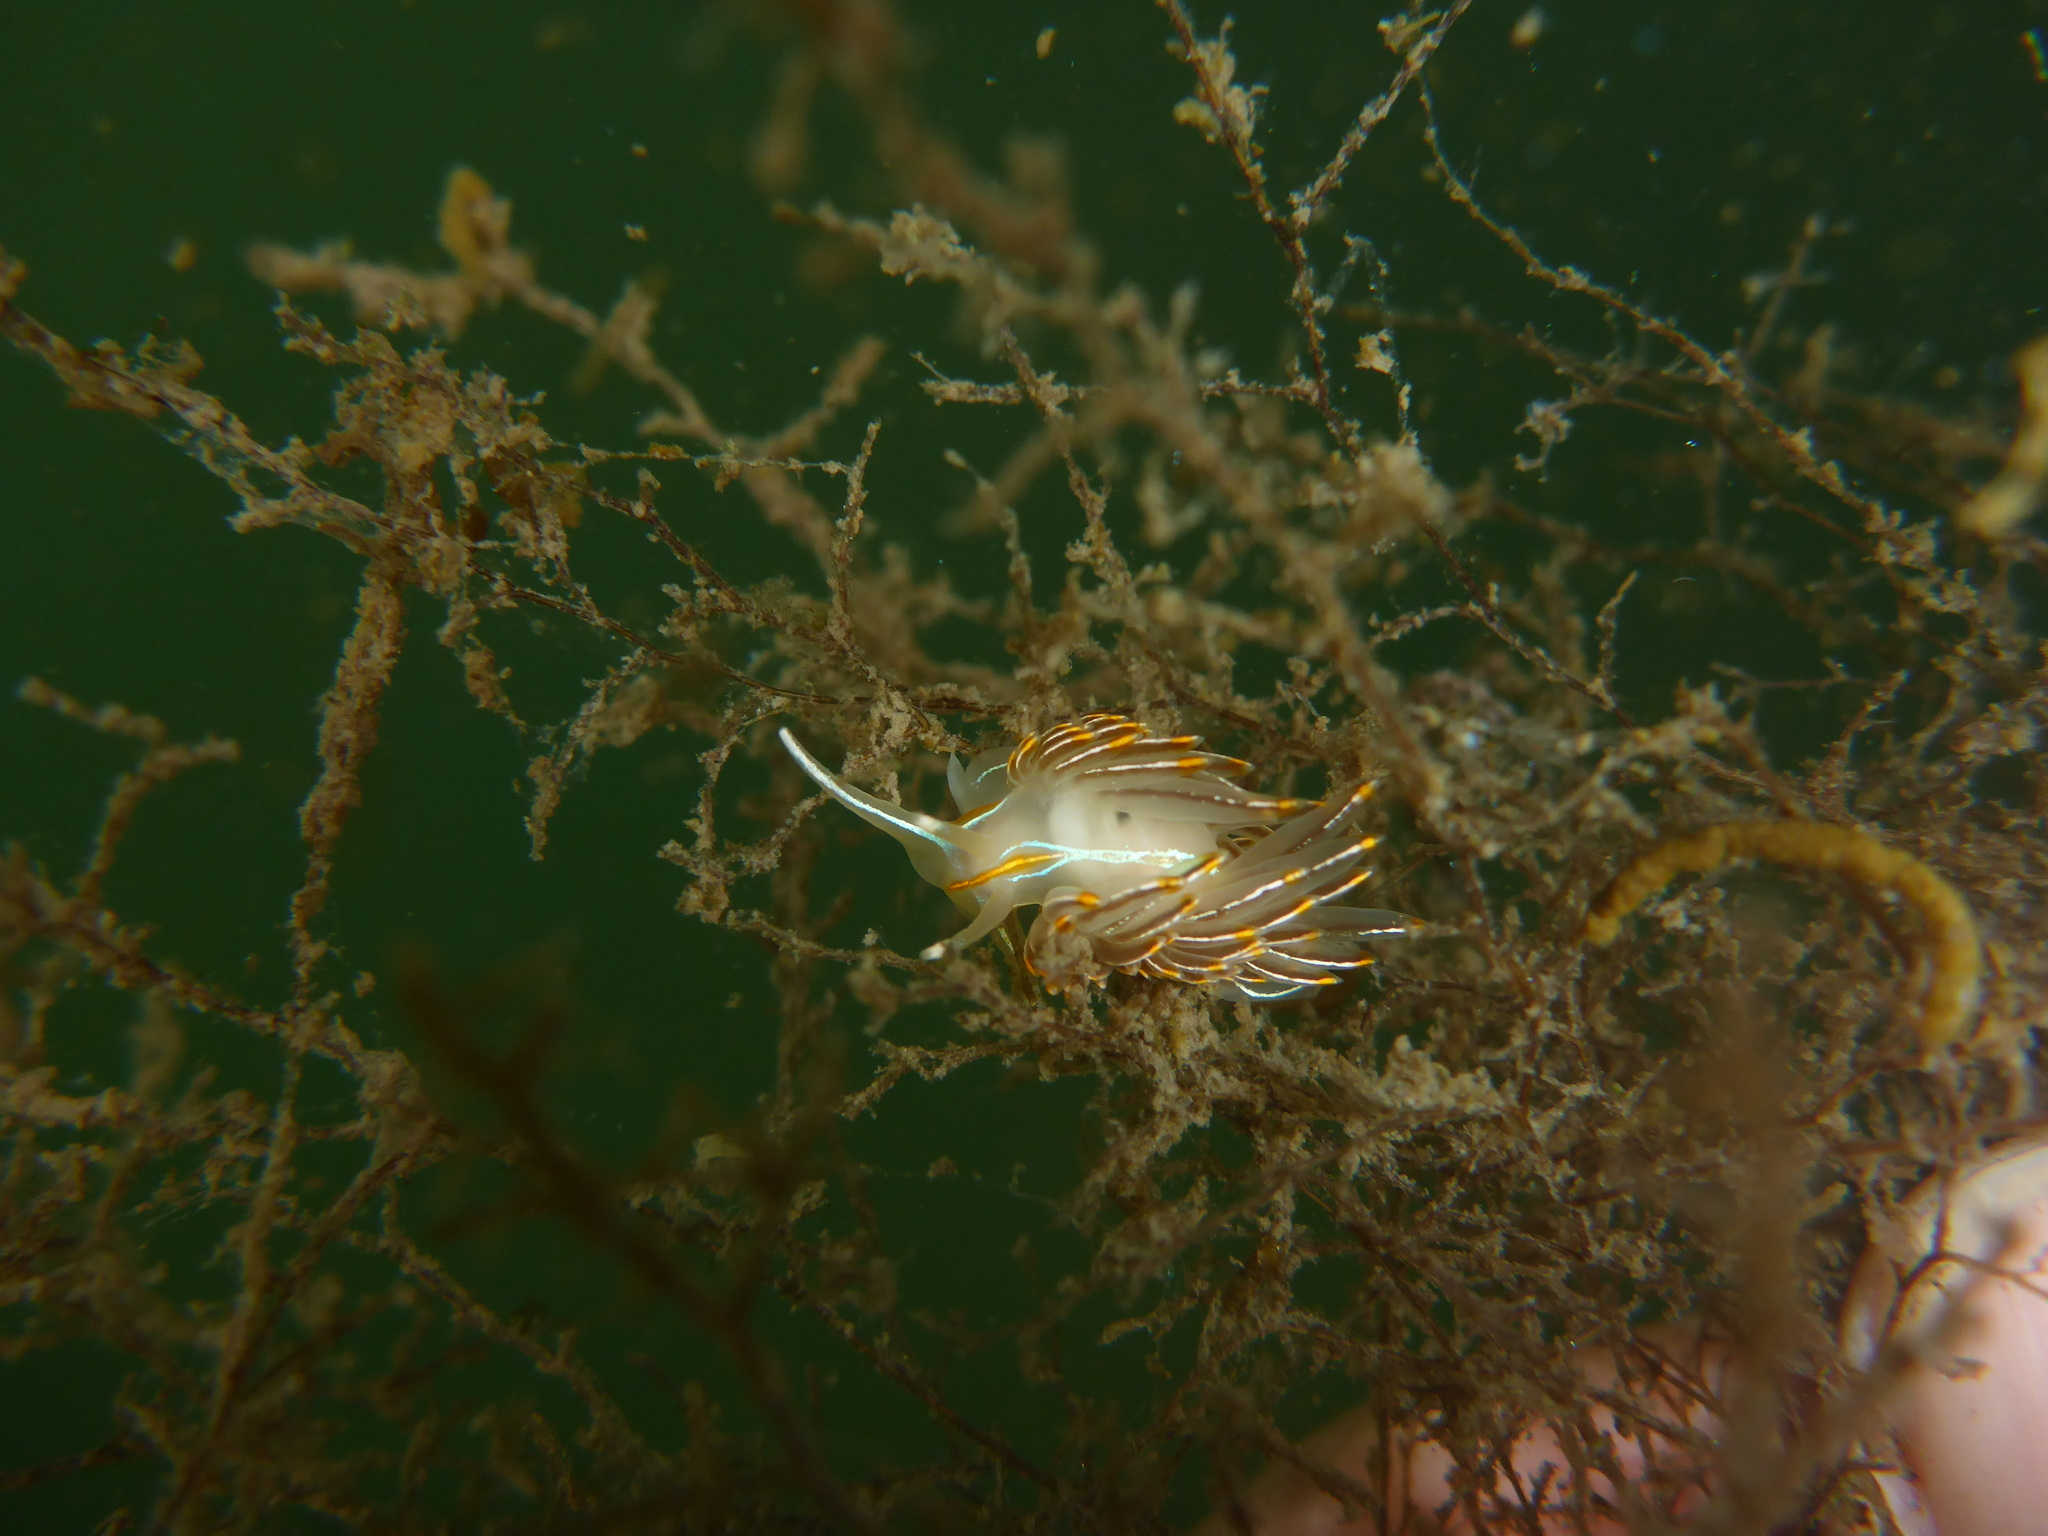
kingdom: Animalia
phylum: Mollusca
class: Gastropoda
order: Nudibranchia
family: Myrrhinidae
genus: Hermissenda
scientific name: Hermissenda crassicornis
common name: Hermissenda
